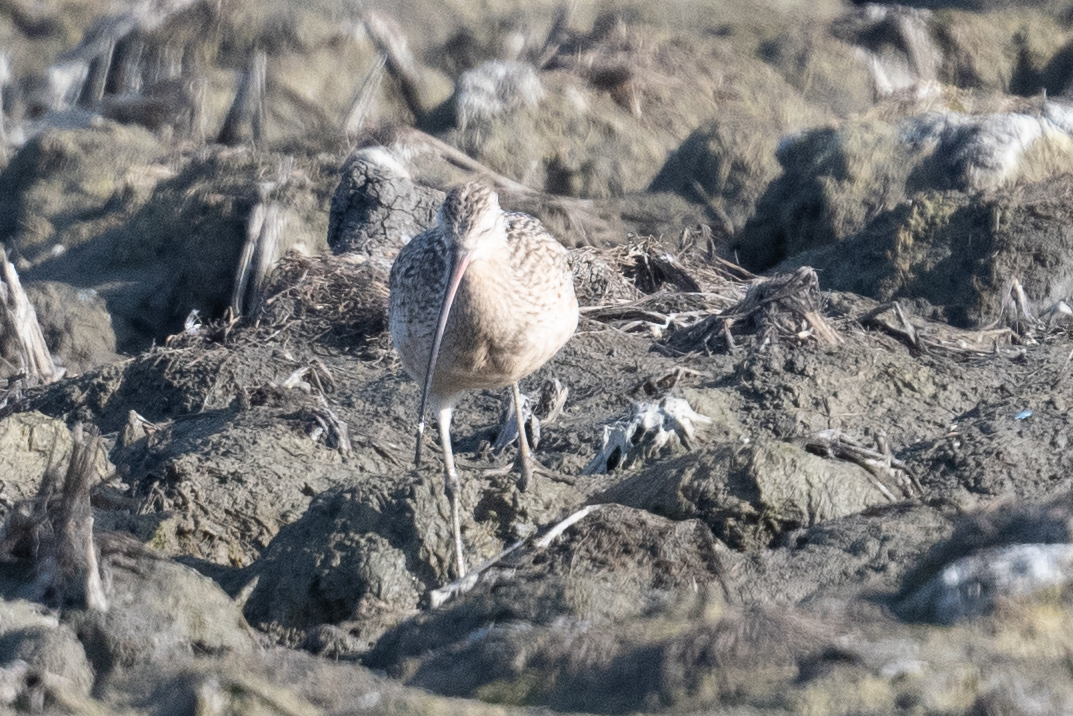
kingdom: Animalia
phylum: Chordata
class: Aves
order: Charadriiformes
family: Scolopacidae
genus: Numenius
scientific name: Numenius americanus
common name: Long-billed curlew
